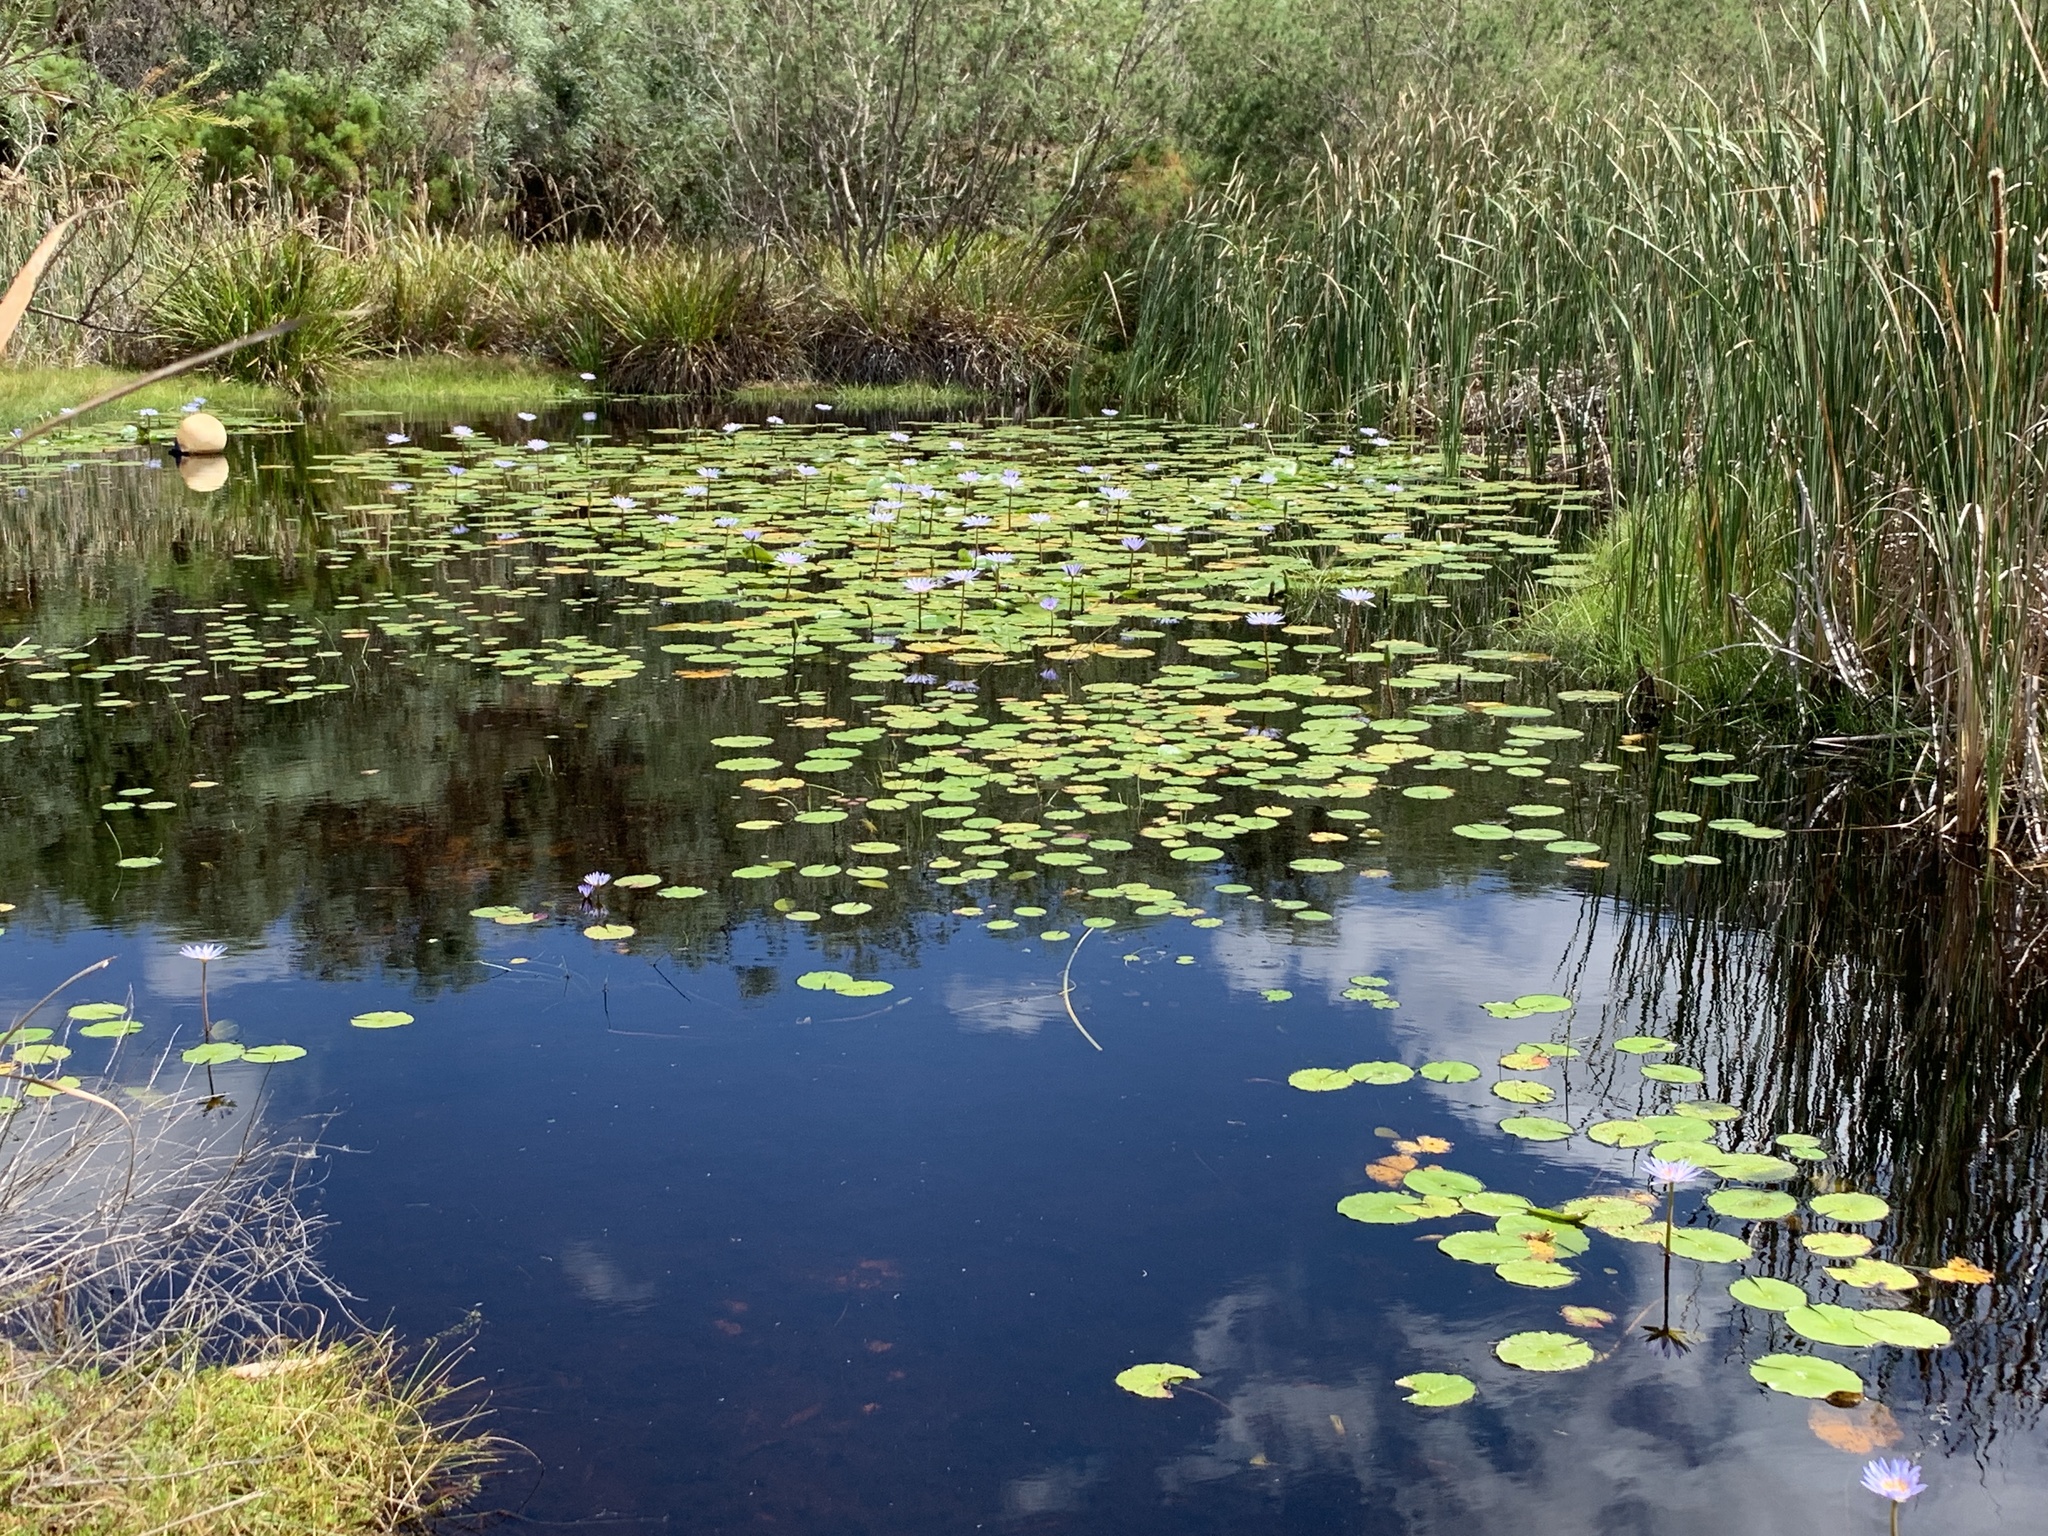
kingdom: Plantae
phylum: Tracheophyta
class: Magnoliopsida
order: Nymphaeales
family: Nymphaeaceae
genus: Nymphaea
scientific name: Nymphaea nouchali
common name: Blue lotus
